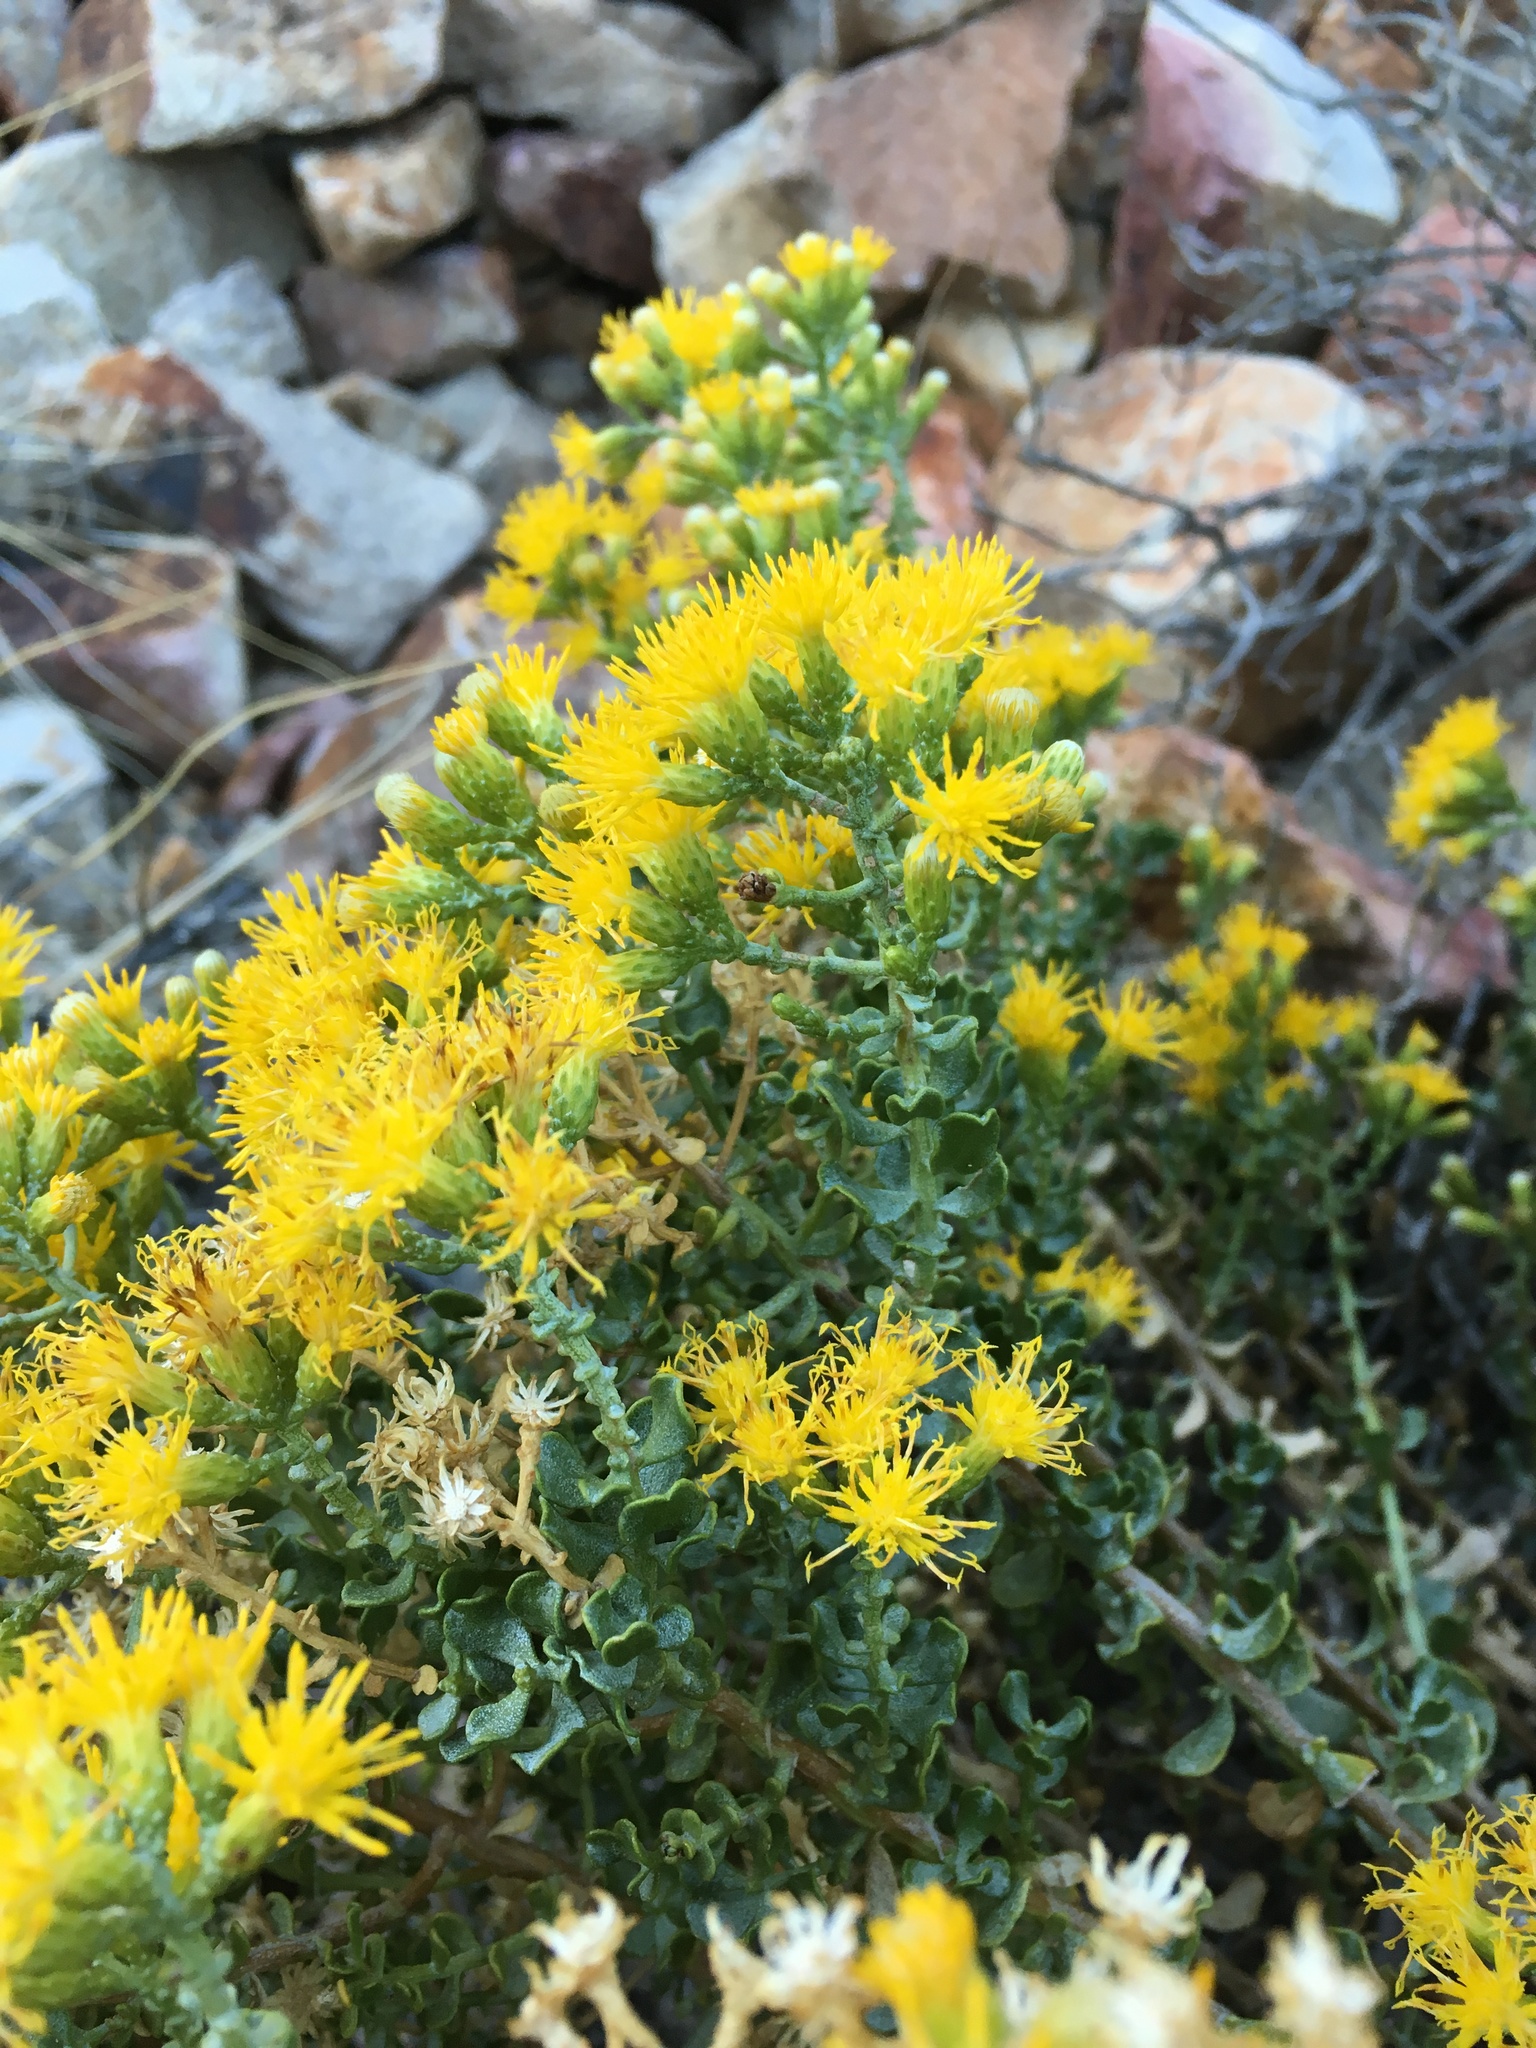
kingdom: Plantae
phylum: Tracheophyta
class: Magnoliopsida
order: Asterales
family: Asteraceae
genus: Ericameria
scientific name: Ericameria cuneata
